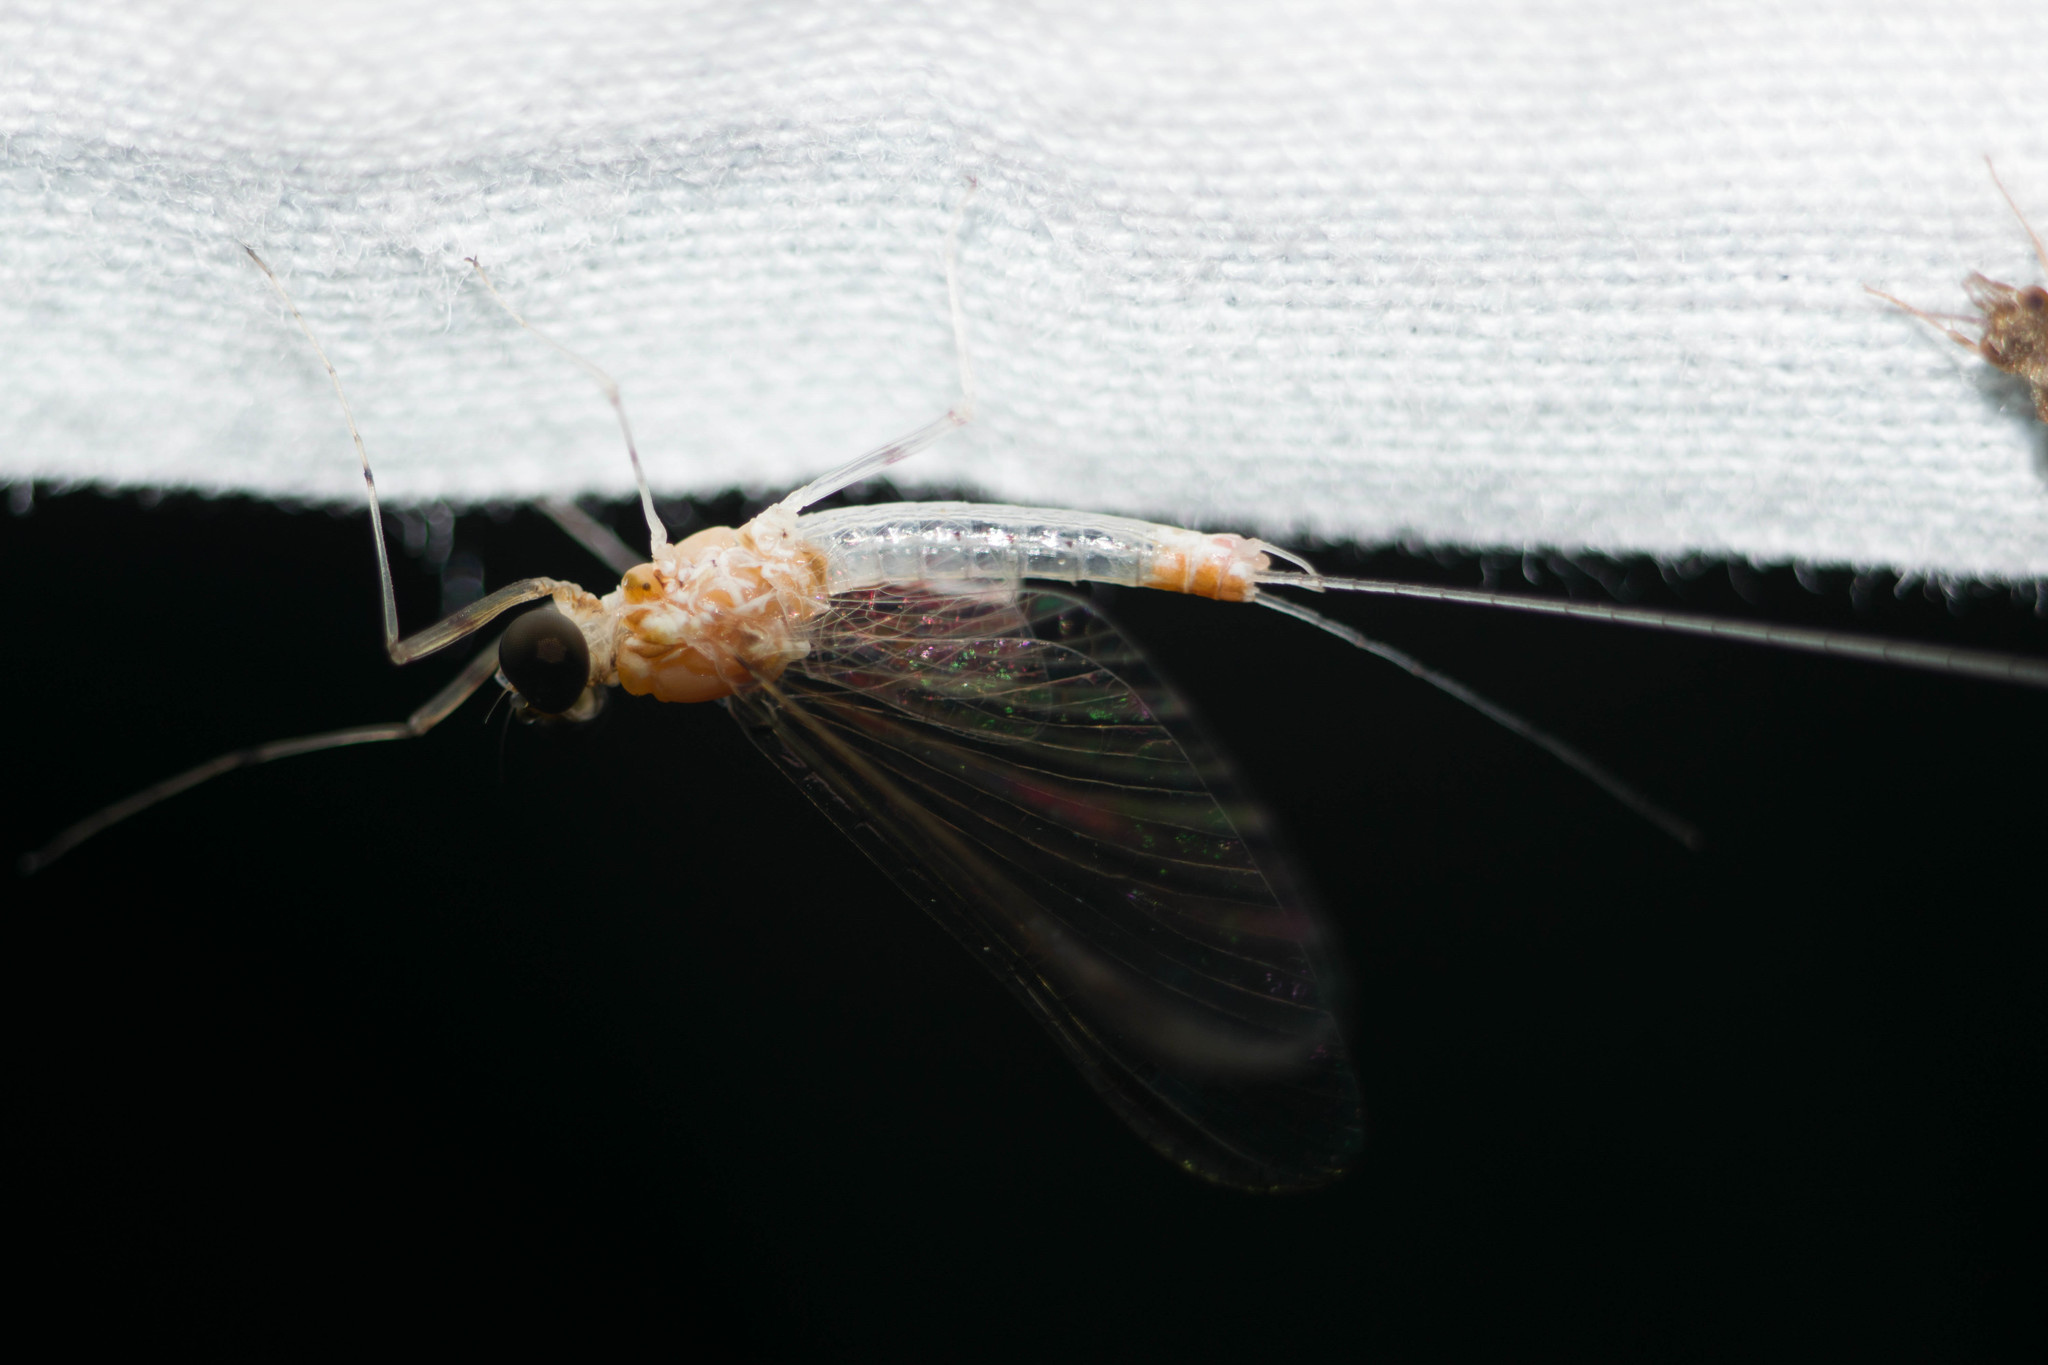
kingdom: Animalia
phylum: Arthropoda
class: Insecta
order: Ephemeroptera
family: Heptageniidae
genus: Maccaffertium
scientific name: Maccaffertium pulchellum
